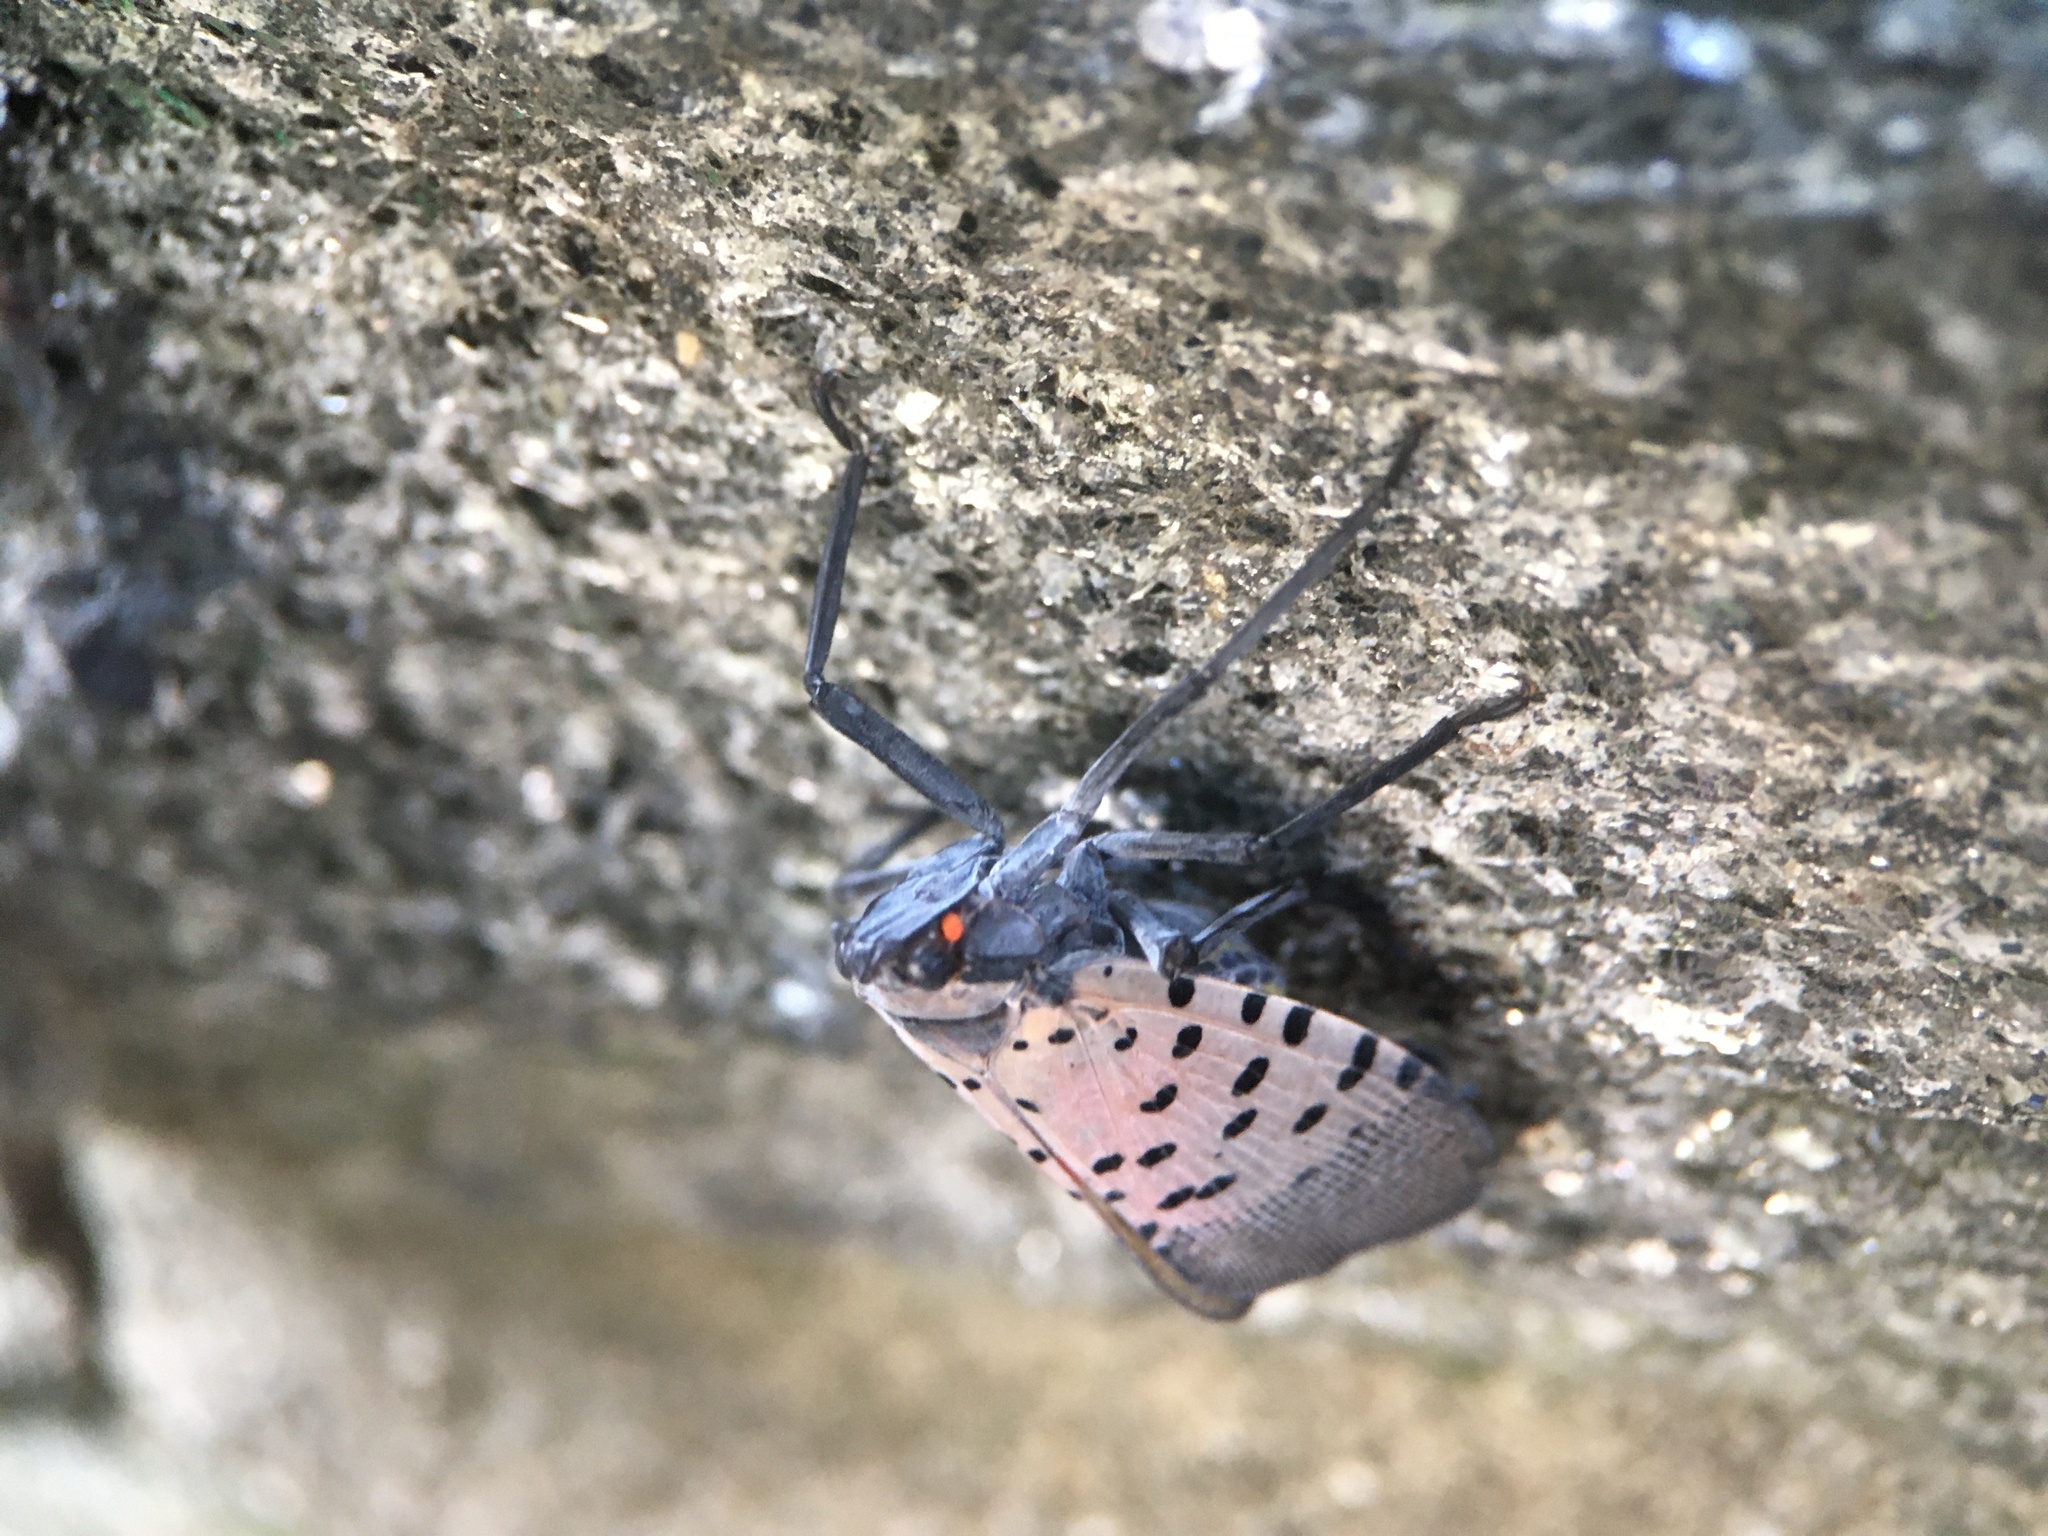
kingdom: Animalia
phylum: Arthropoda
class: Insecta
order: Hemiptera
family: Fulgoridae
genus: Lycorma
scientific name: Lycorma delicatula
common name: Spotted lanternfly
